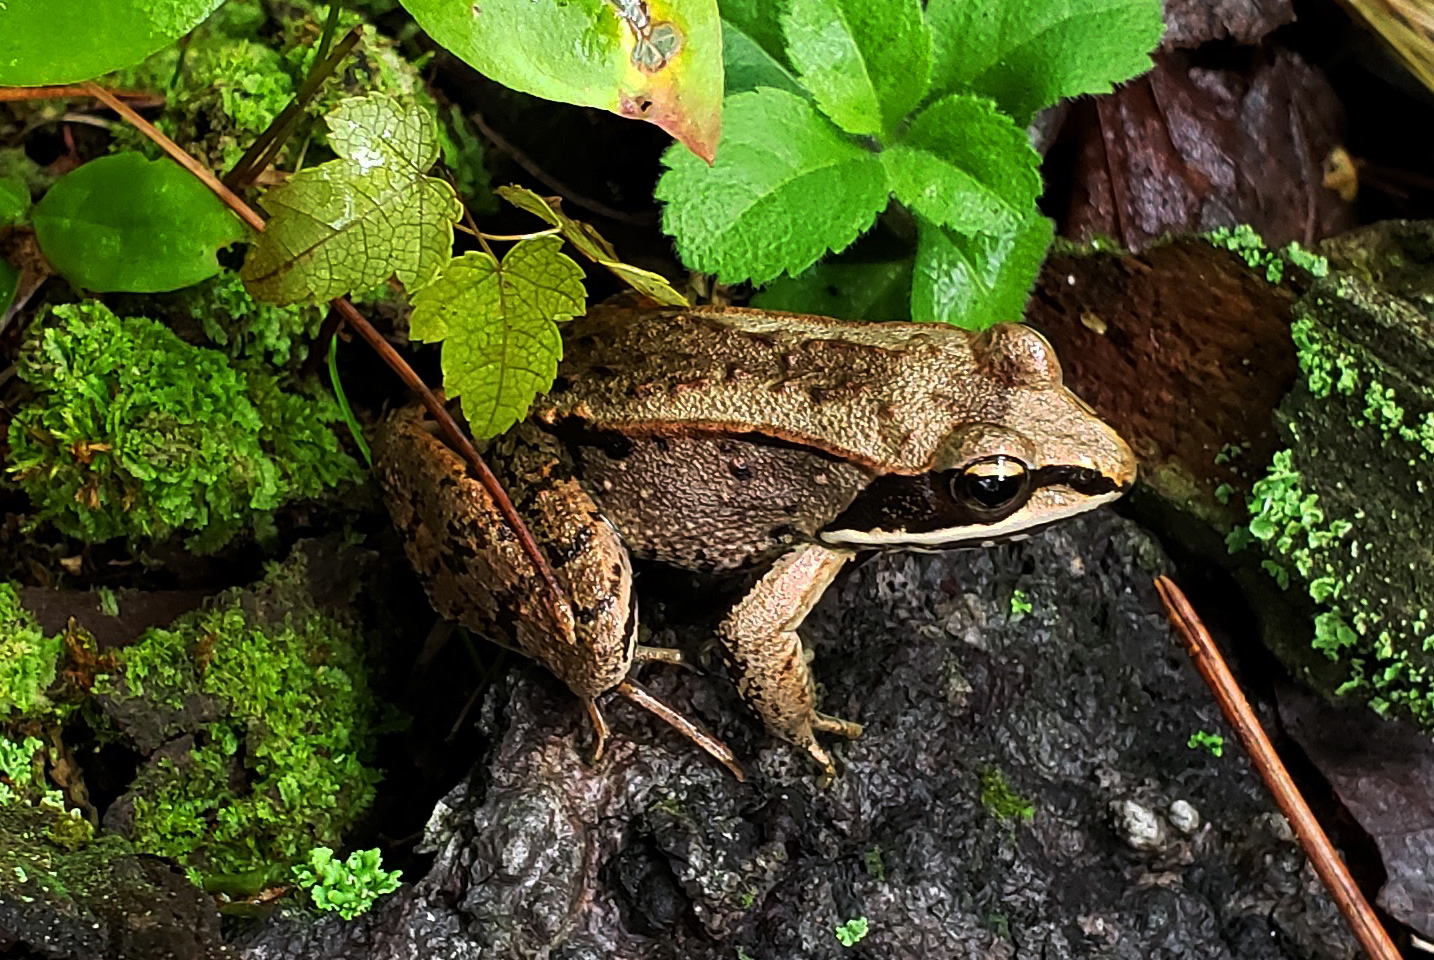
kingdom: Animalia
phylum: Chordata
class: Amphibia
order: Anura
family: Ranidae
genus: Lithobates
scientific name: Lithobates sylvaticus
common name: Wood frog
